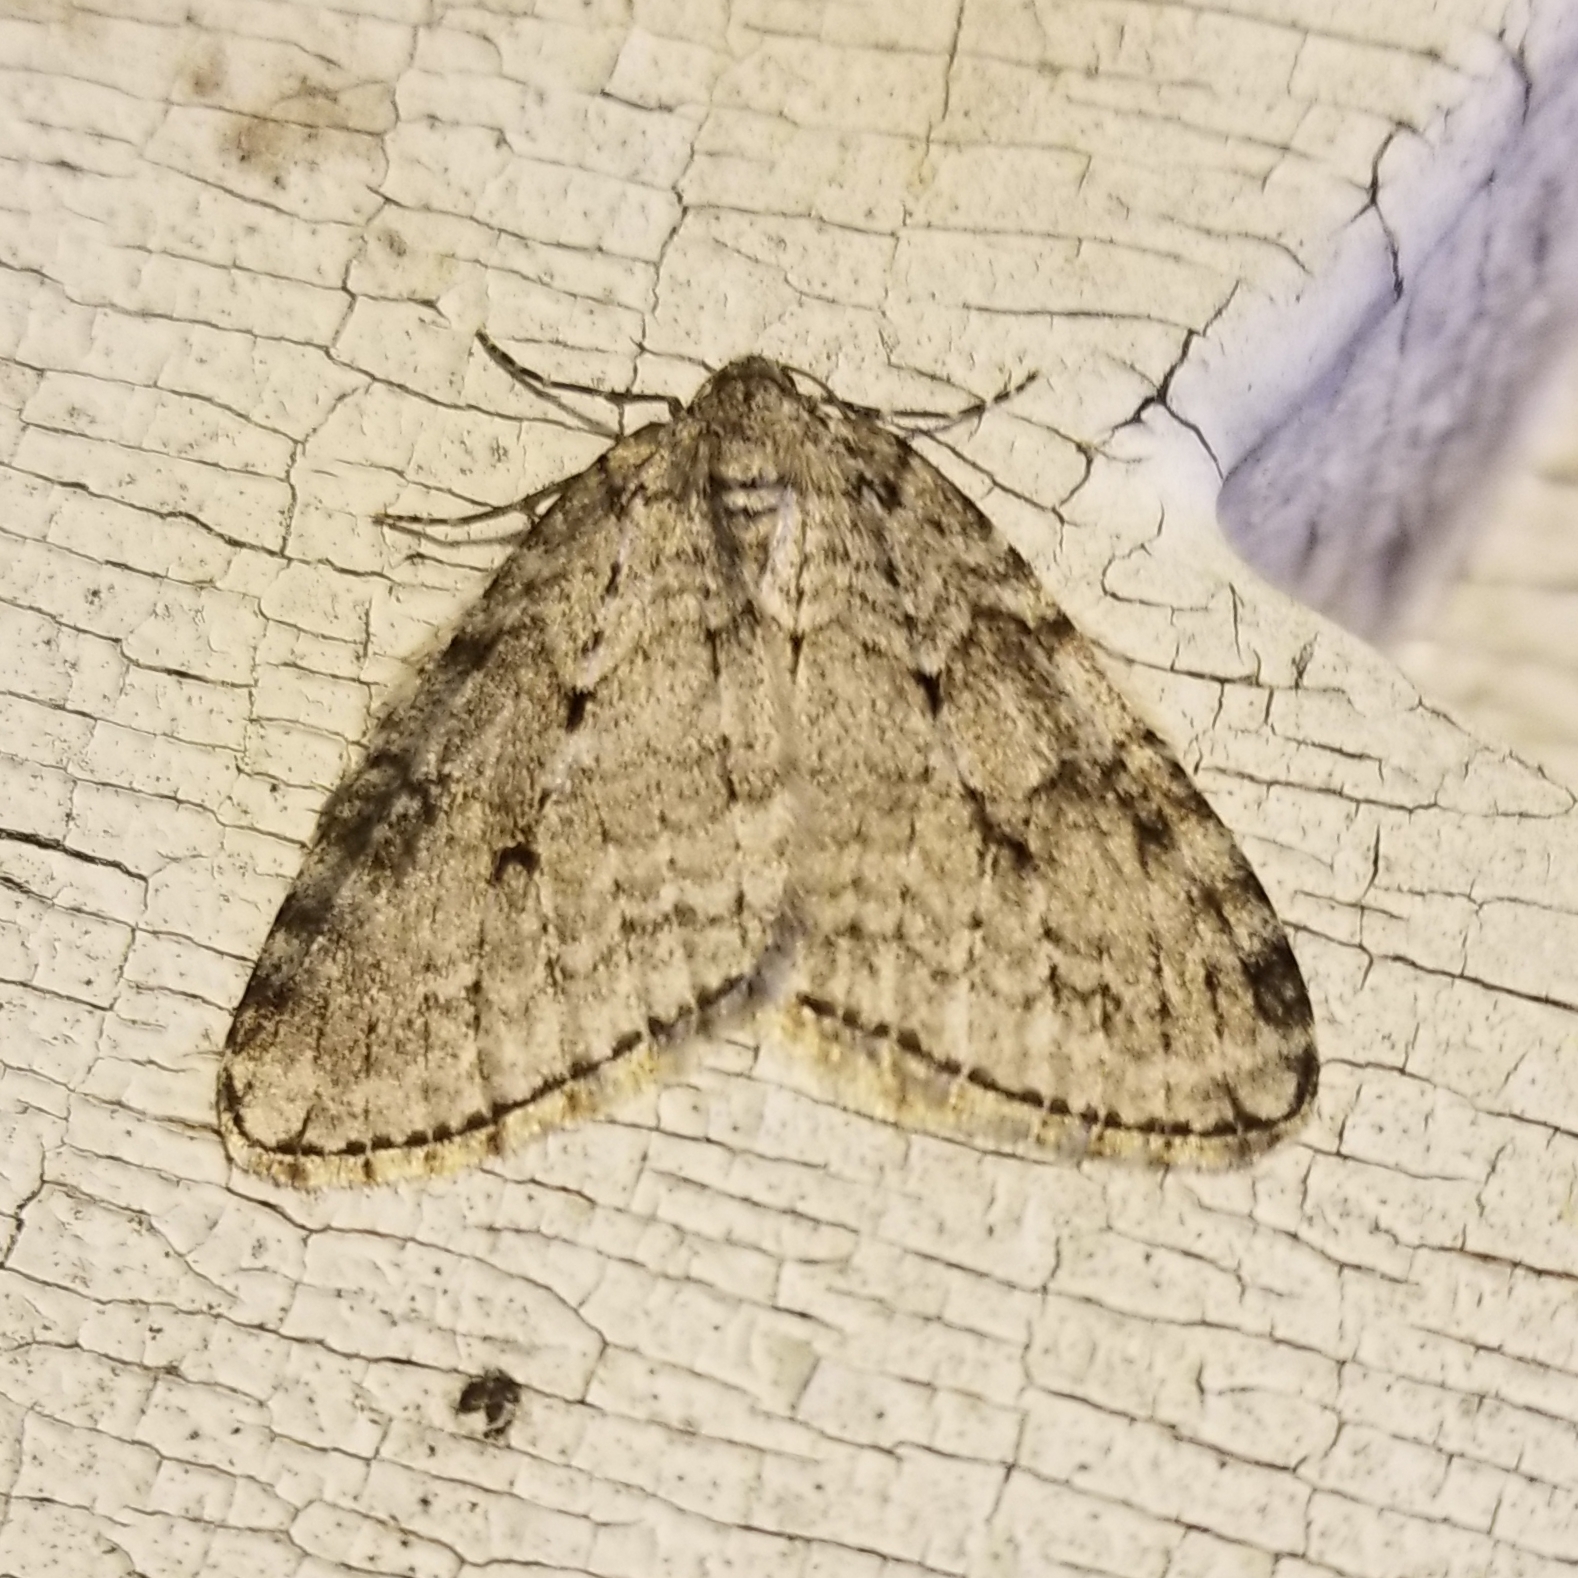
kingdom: Animalia
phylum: Arthropoda
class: Insecta
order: Lepidoptera
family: Geometridae
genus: Epirrita
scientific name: Epirrita autumnata
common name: Autumnal moth
